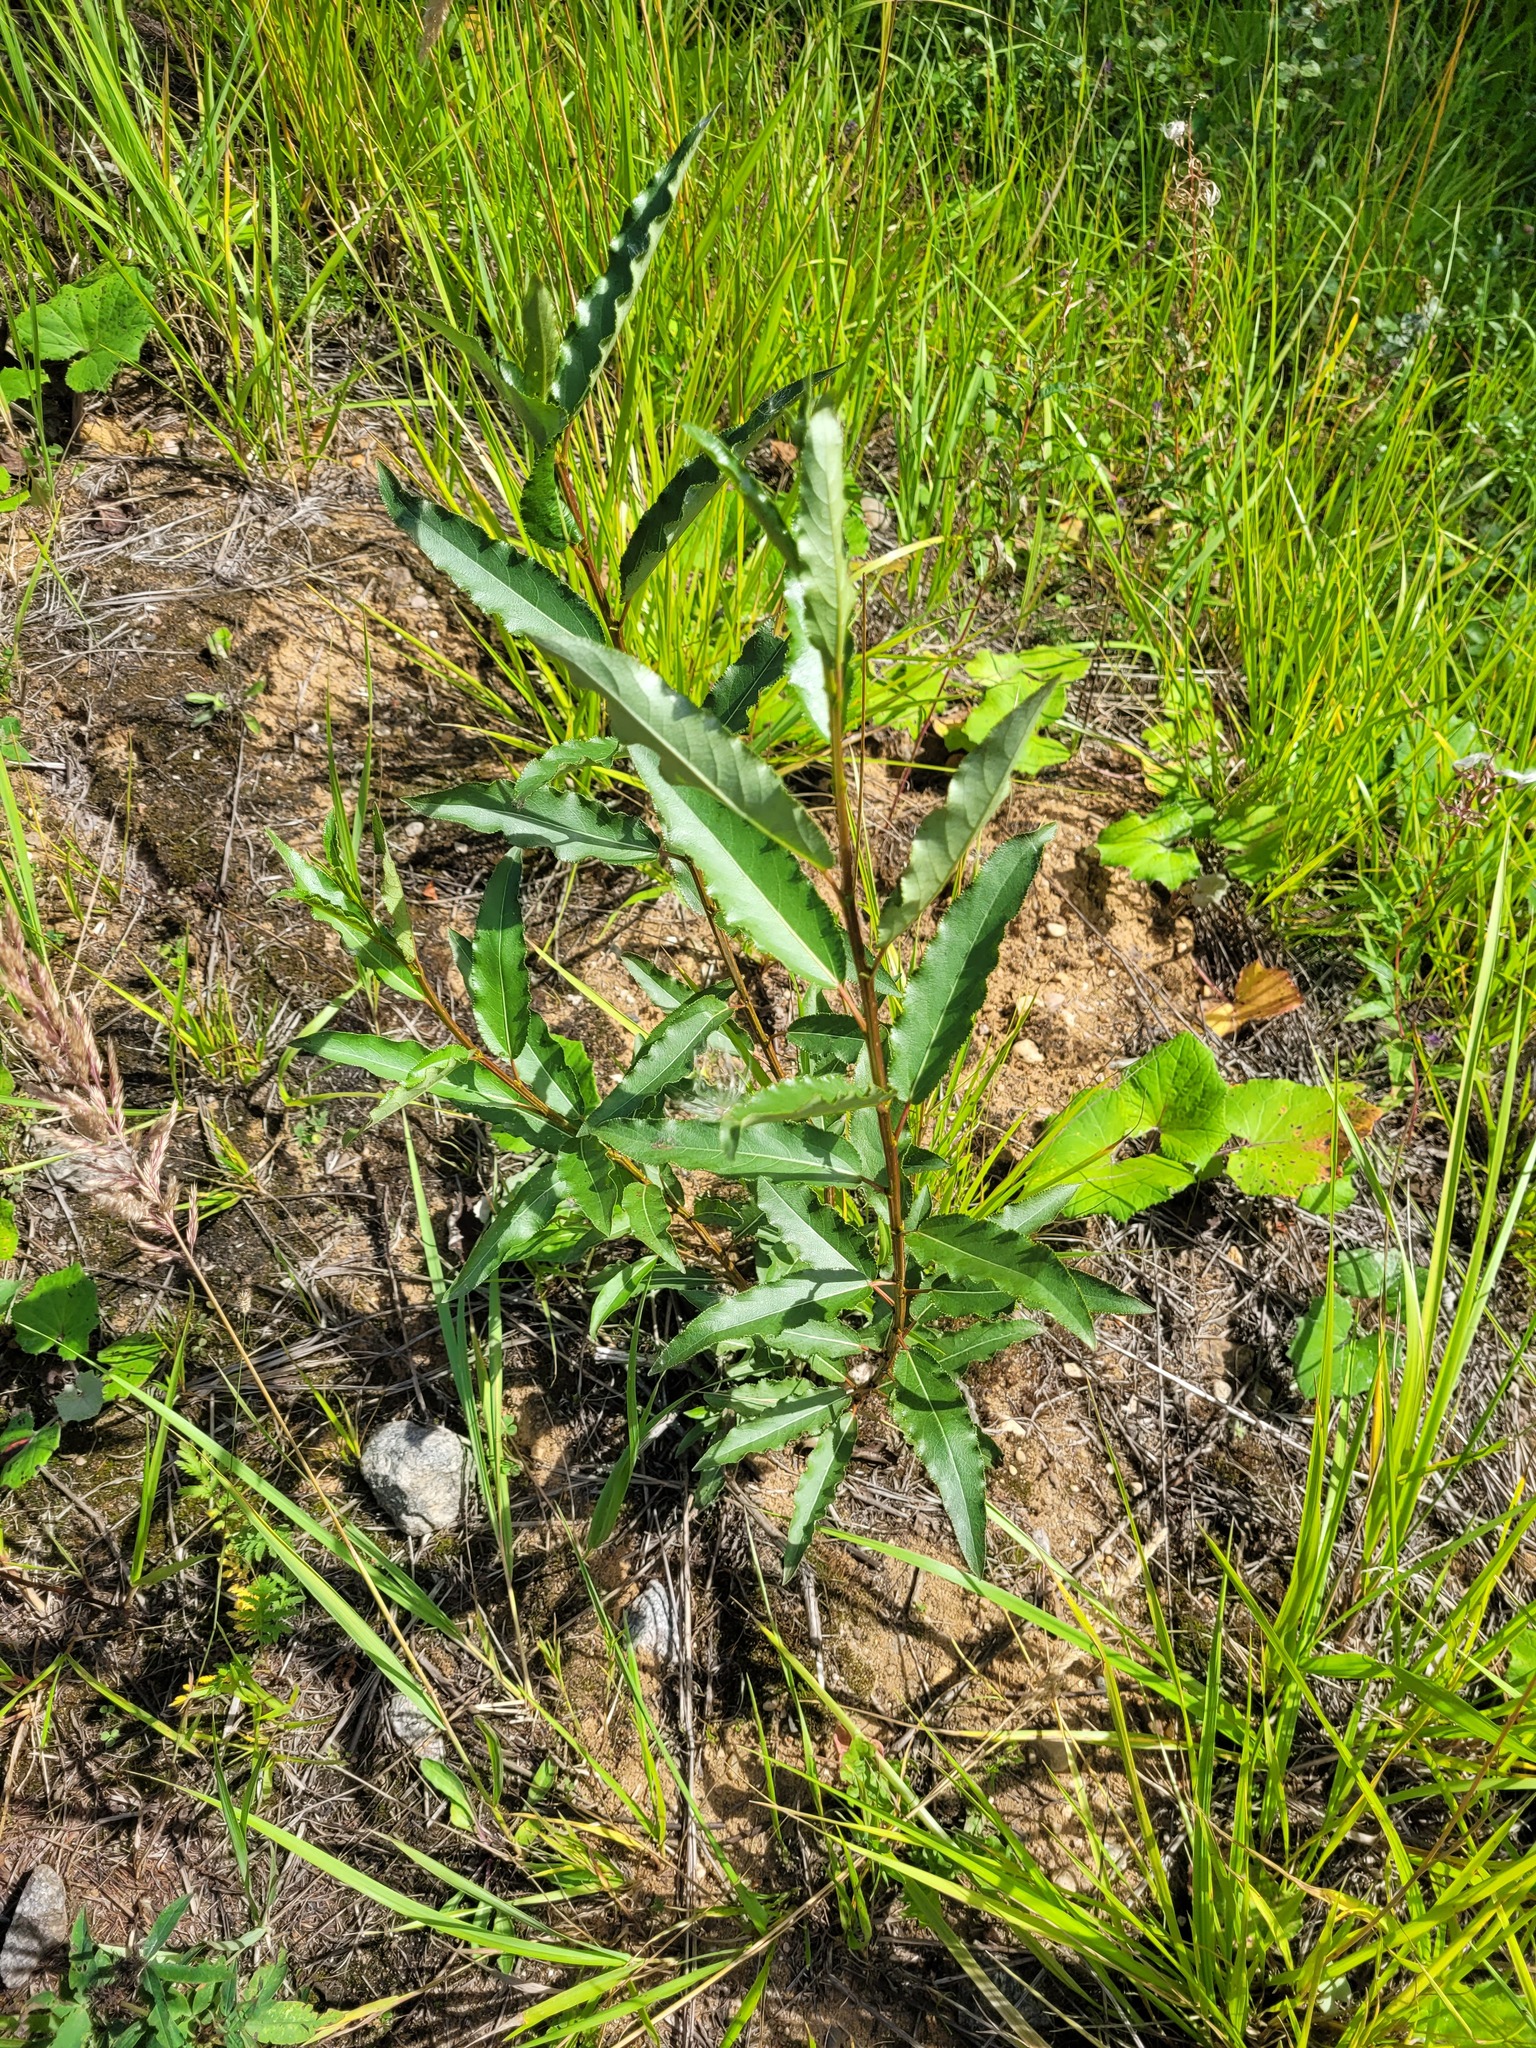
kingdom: Plantae
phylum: Tracheophyta
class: Magnoliopsida
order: Malpighiales
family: Salicaceae
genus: Populus
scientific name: Populus laurifolia
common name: Laurel-leaf poplar
